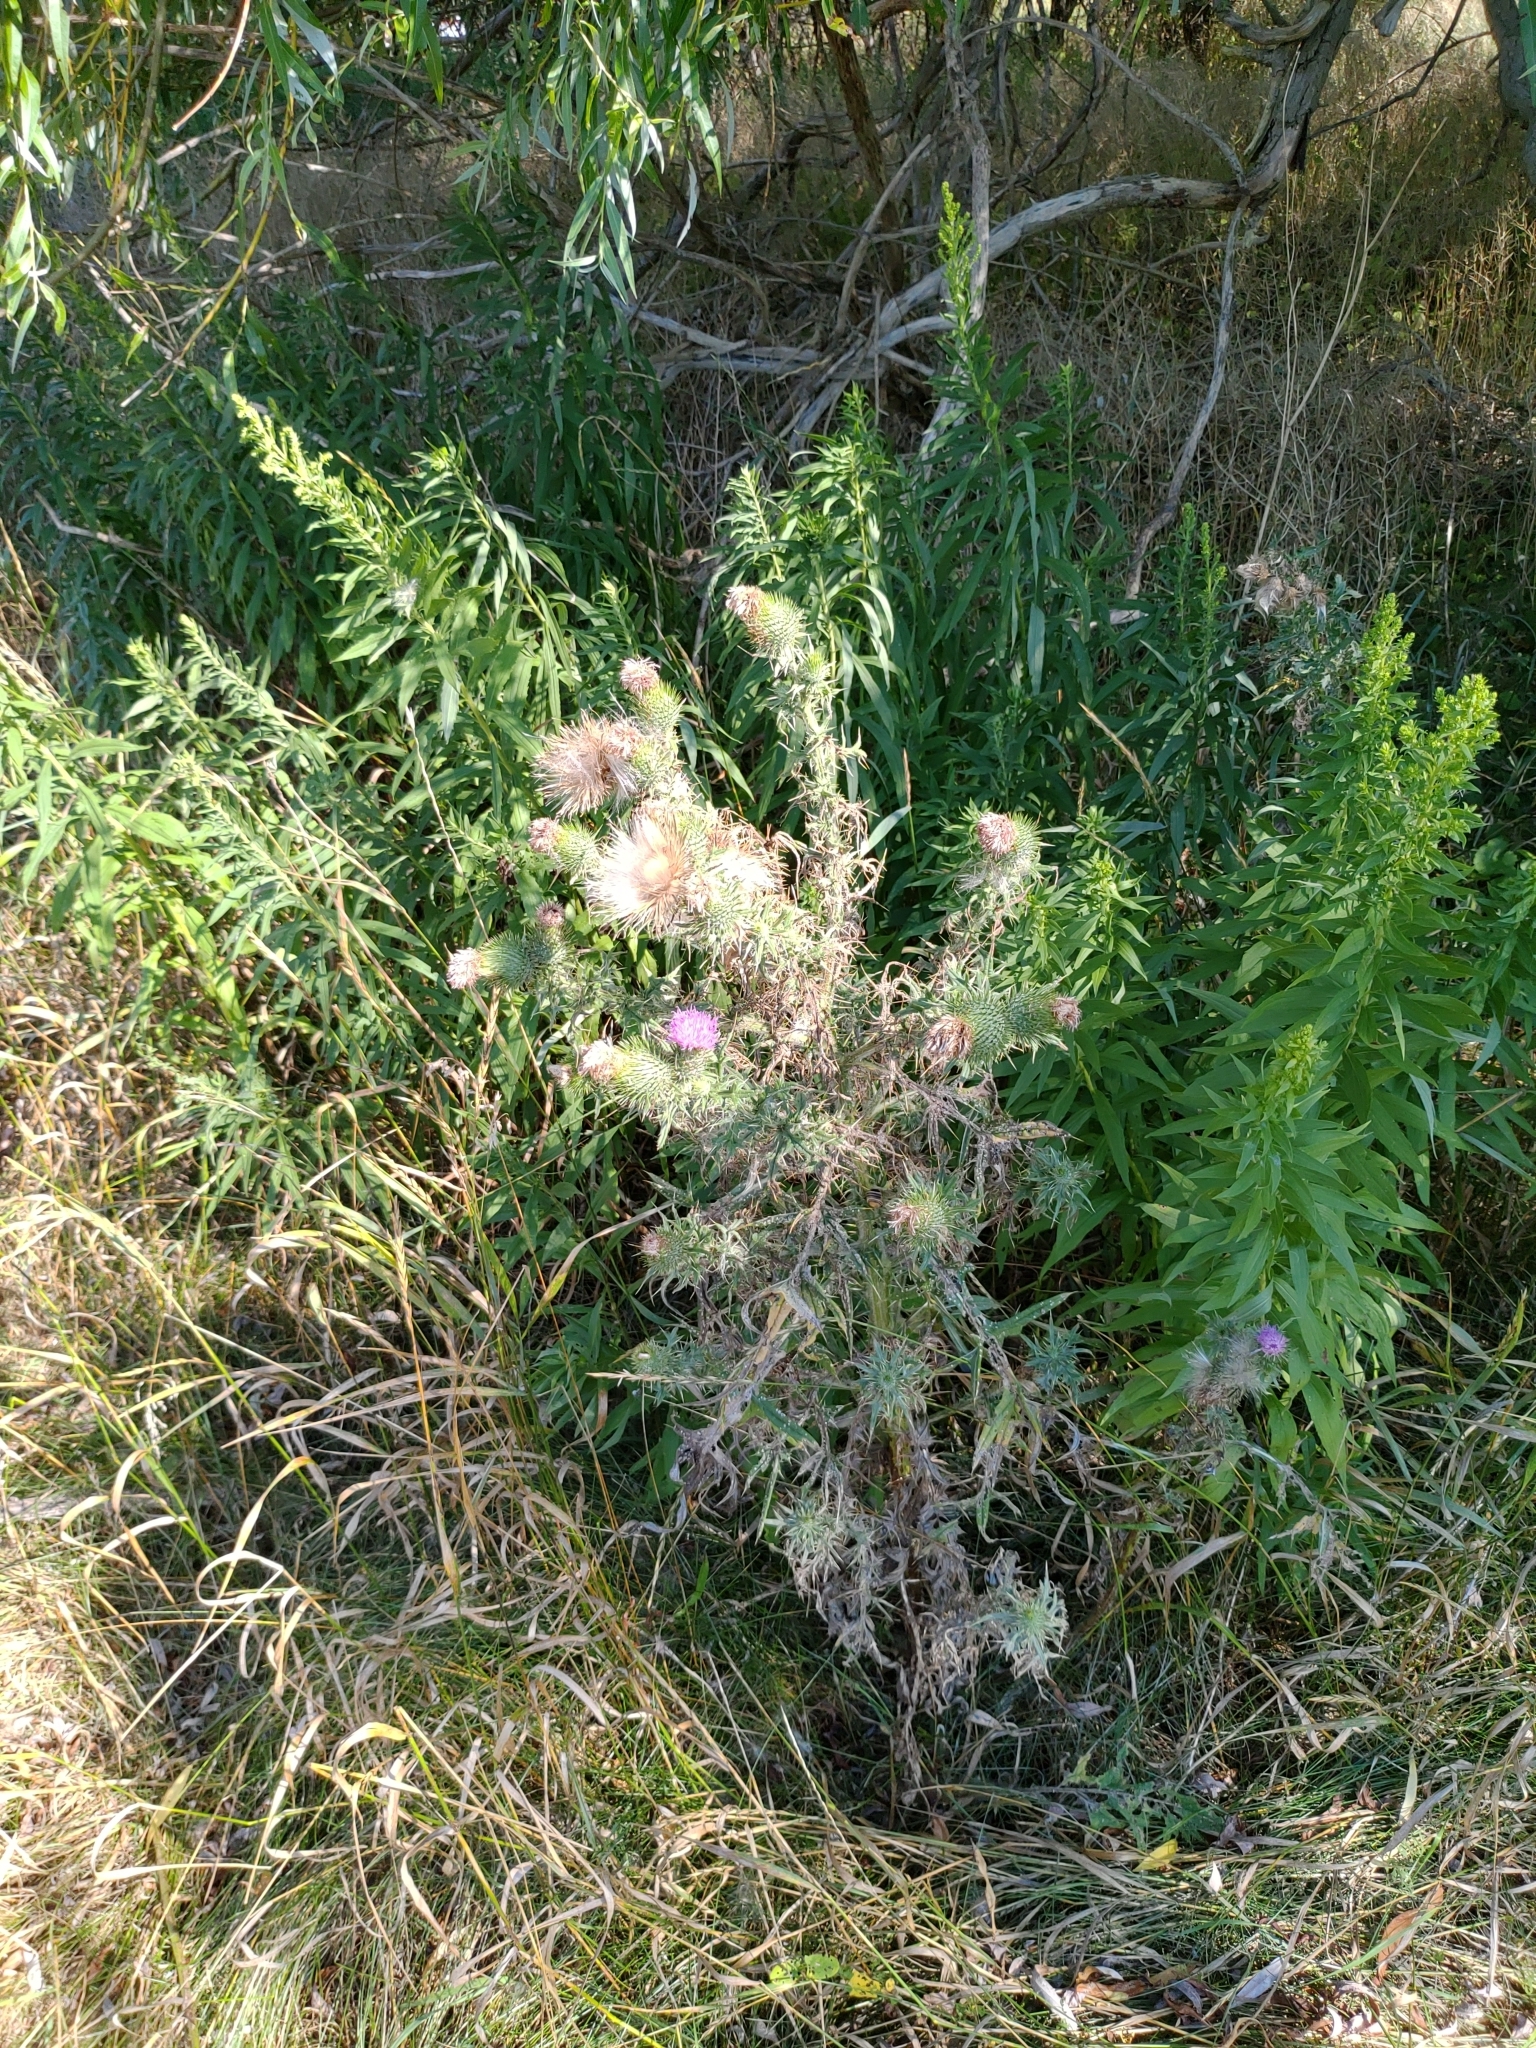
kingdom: Plantae
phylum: Tracheophyta
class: Magnoliopsida
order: Asterales
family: Asteraceae
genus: Cirsium
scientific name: Cirsium vulgare
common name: Bull thistle
